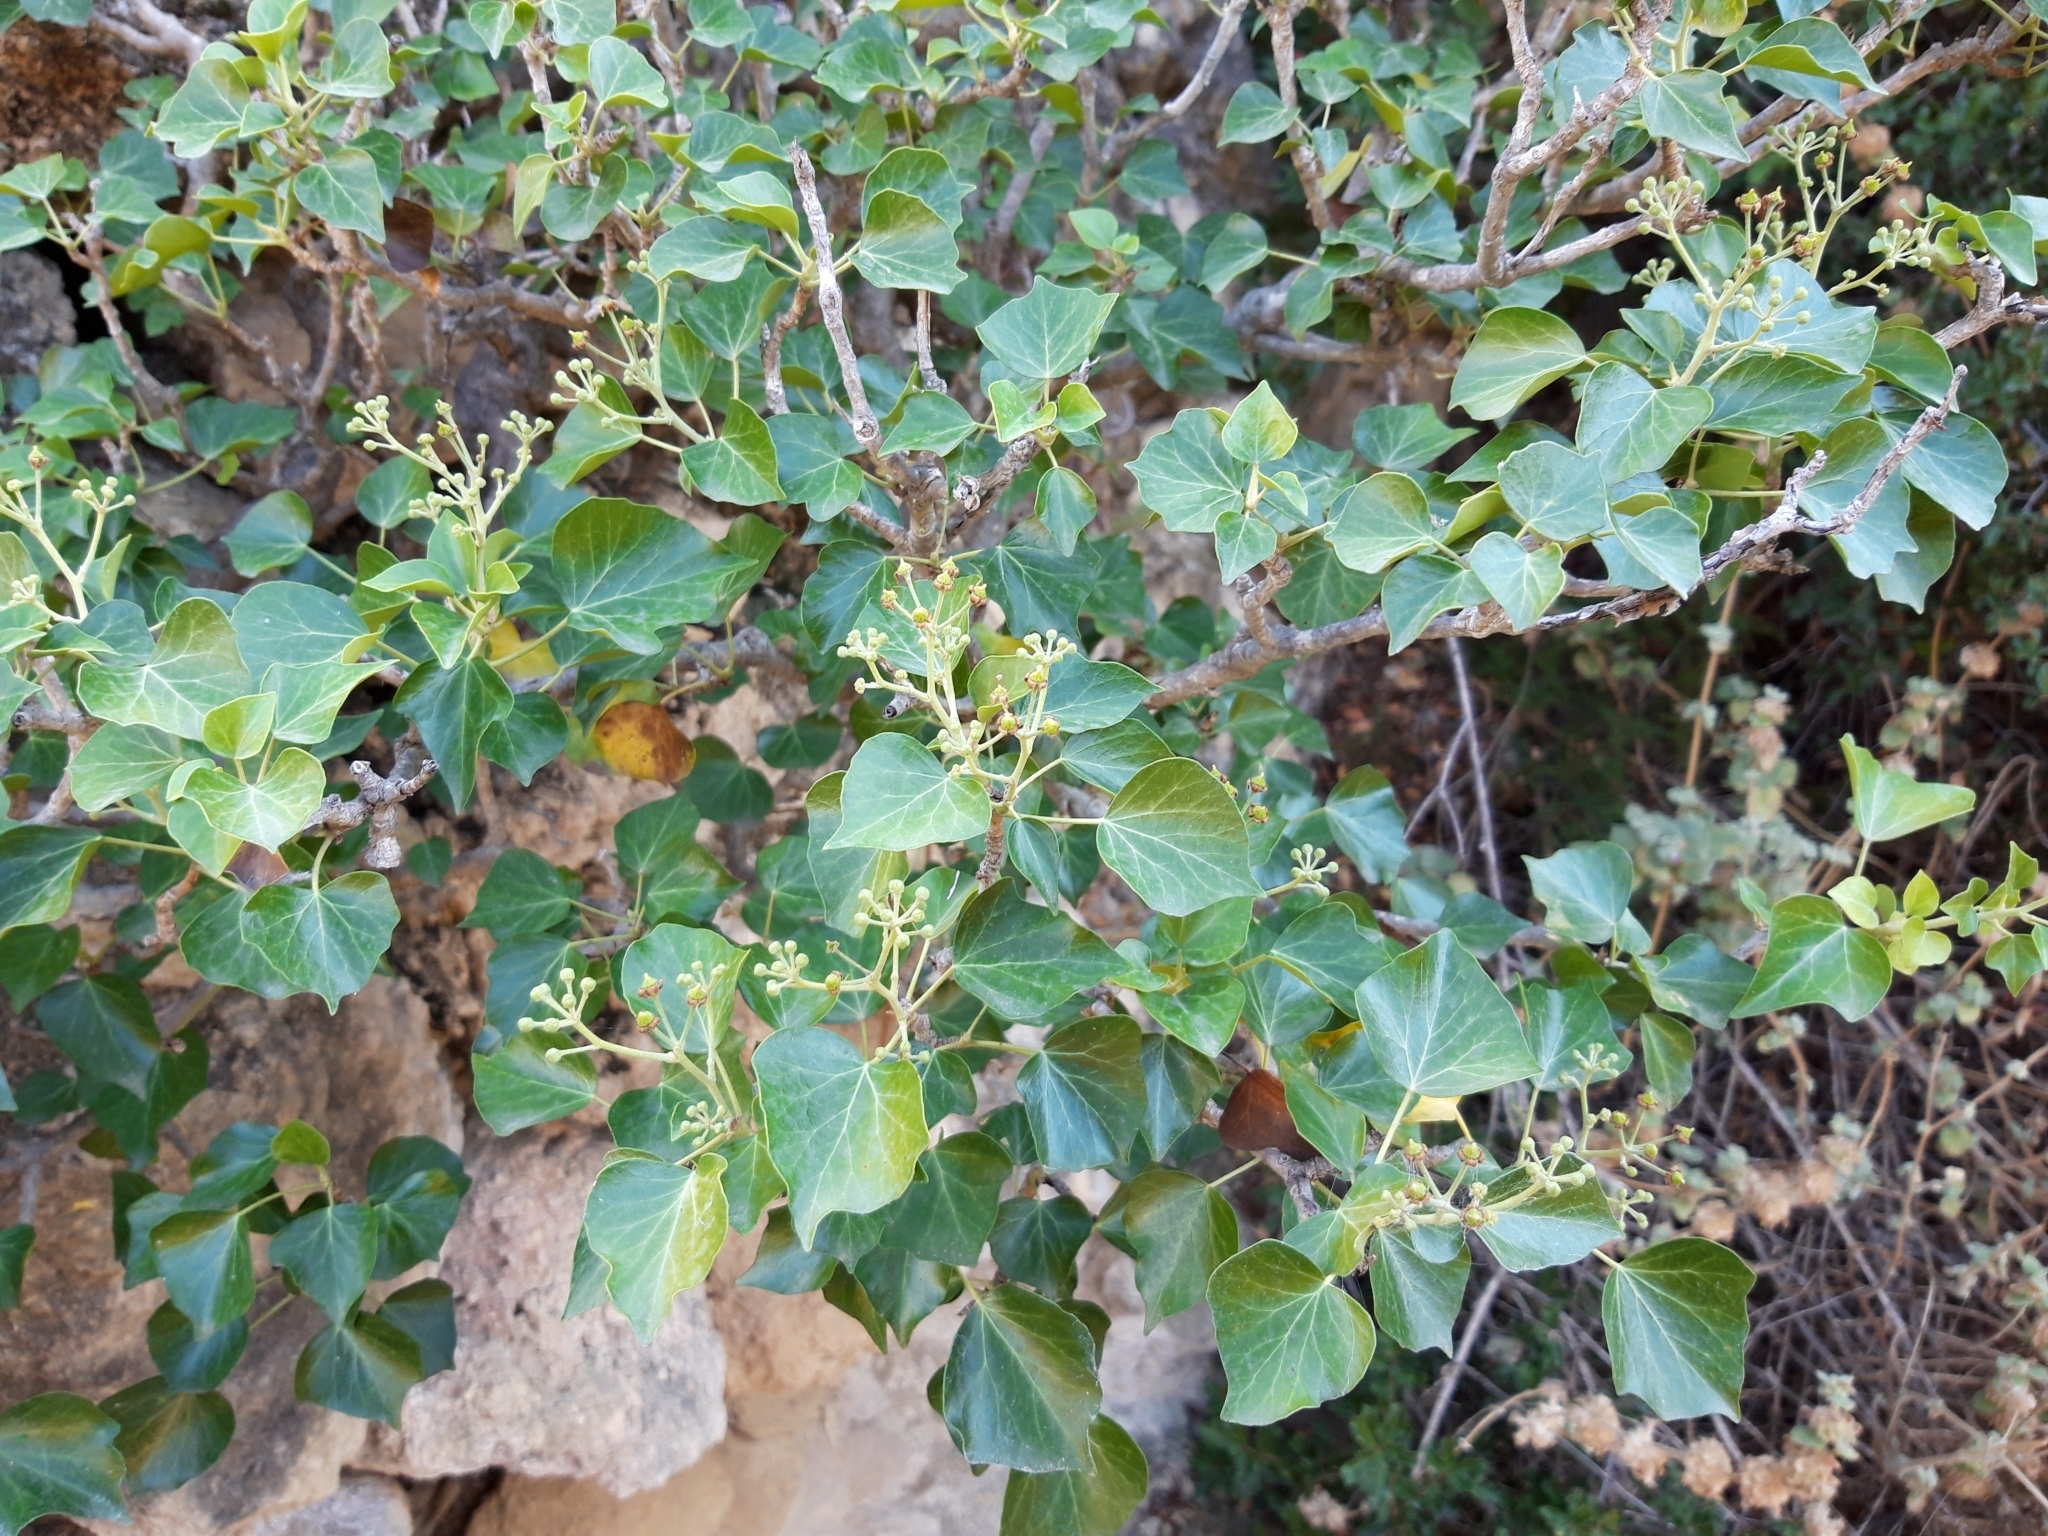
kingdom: Plantae
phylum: Tracheophyta
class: Magnoliopsida
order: Apiales
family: Araliaceae
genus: Hedera
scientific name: Hedera helix
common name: Ivy
